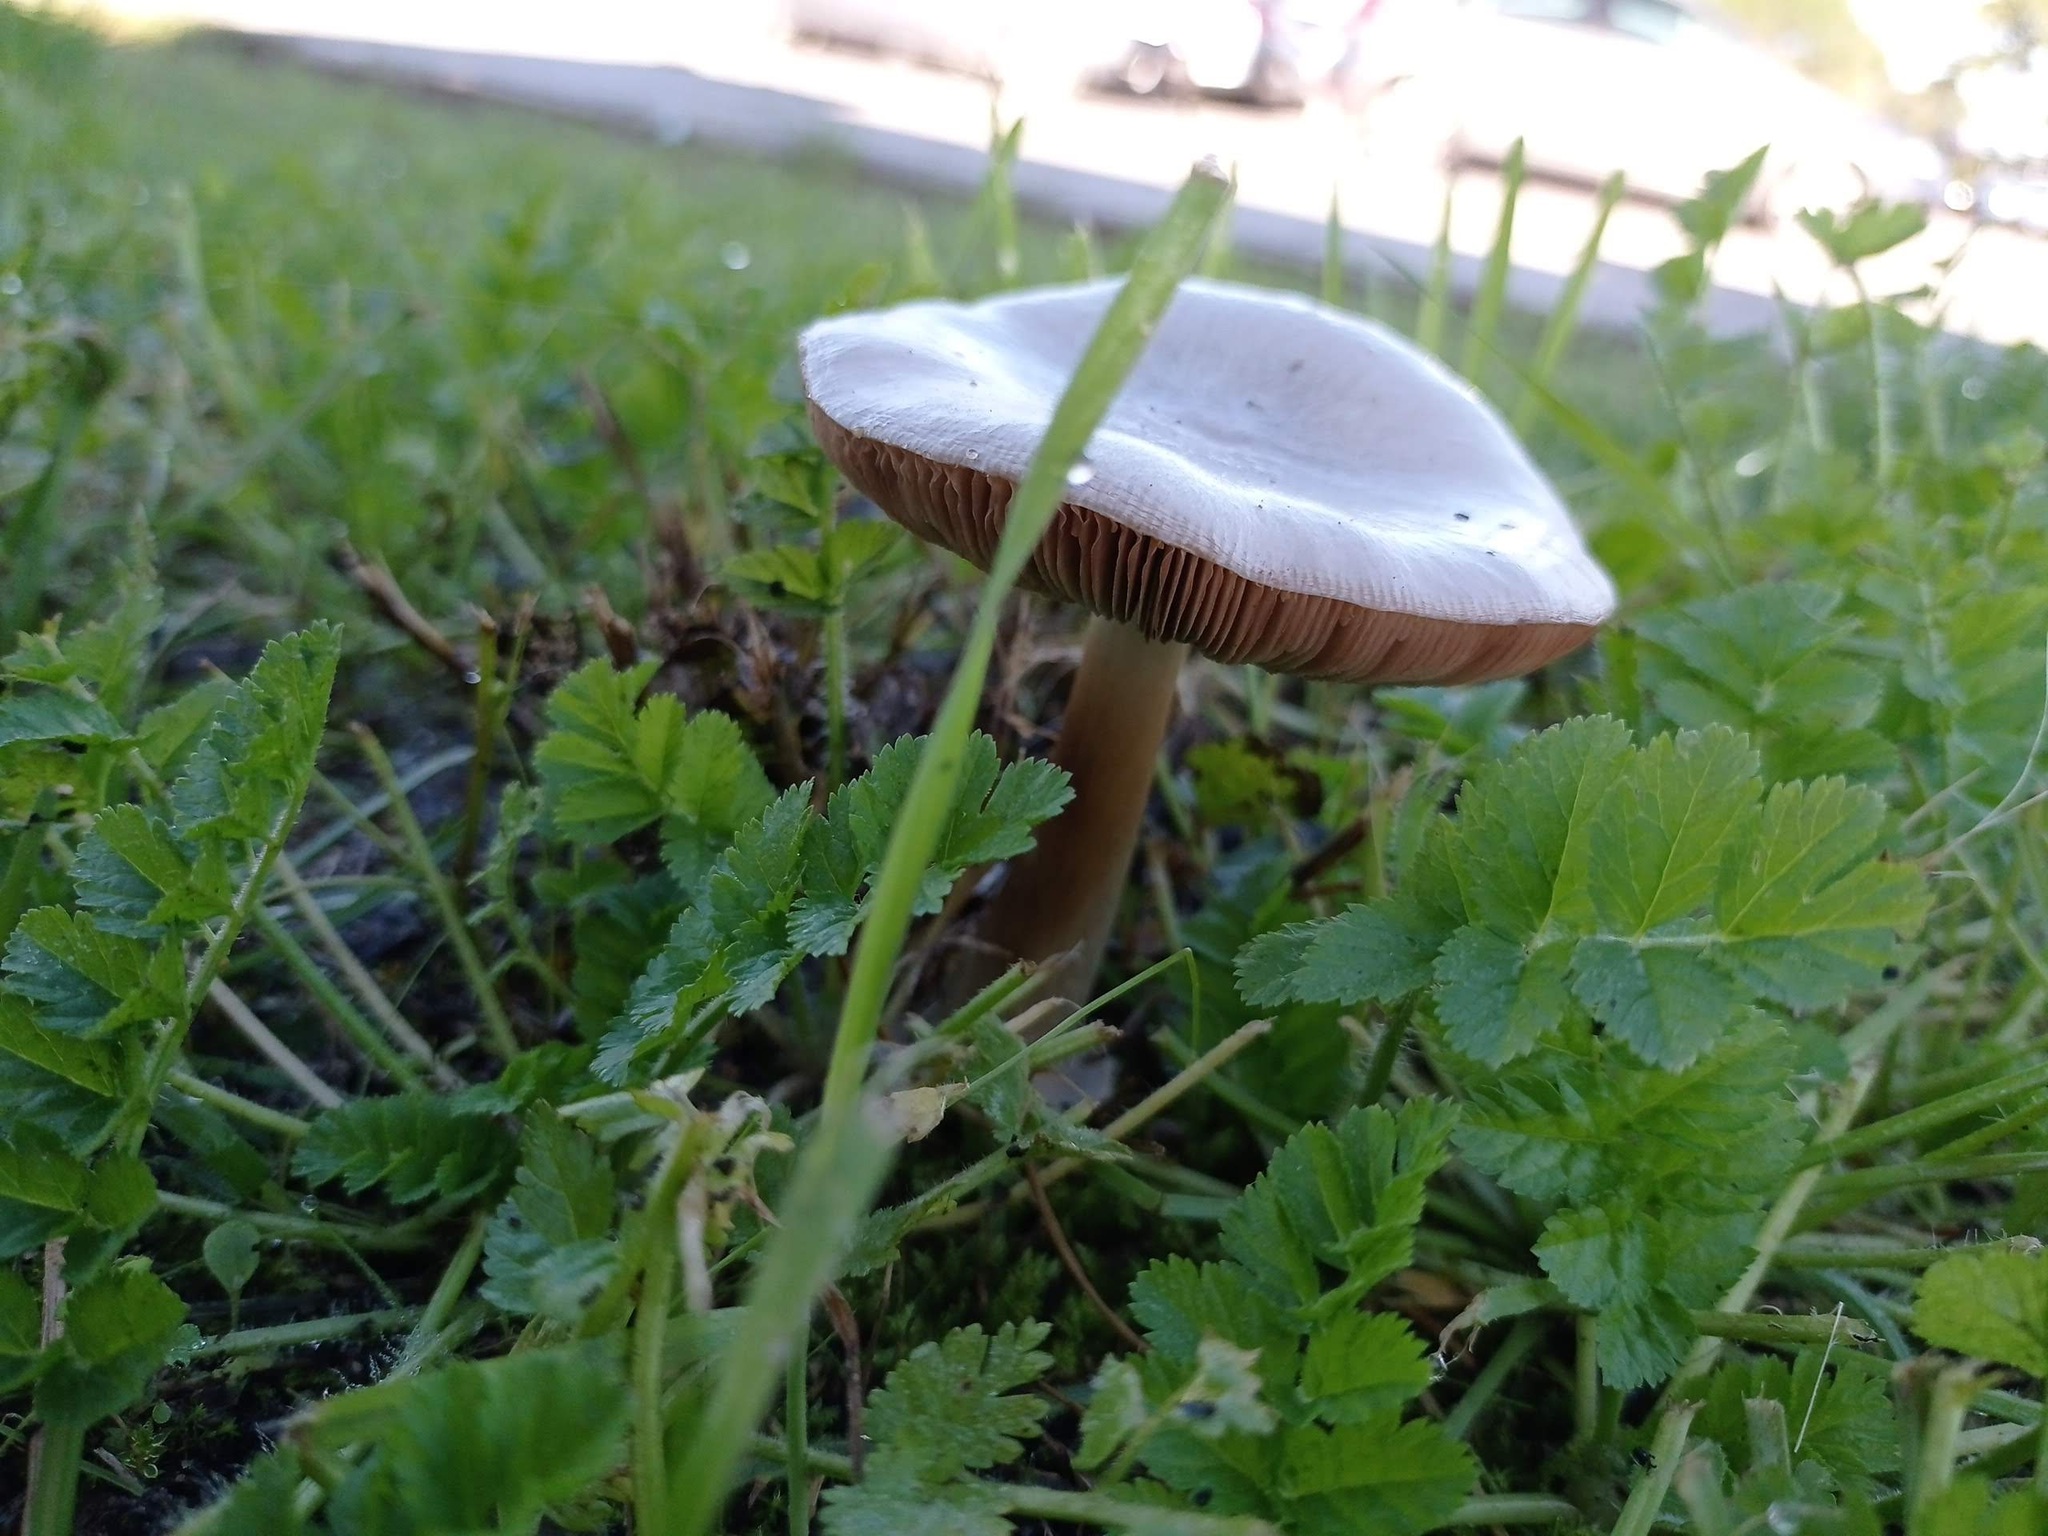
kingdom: Fungi
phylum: Basidiomycota
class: Agaricomycetes
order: Agaricales
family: Pluteaceae
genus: Volvopluteus
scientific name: Volvopluteus gloiocephalus
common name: Stubble rosegill
